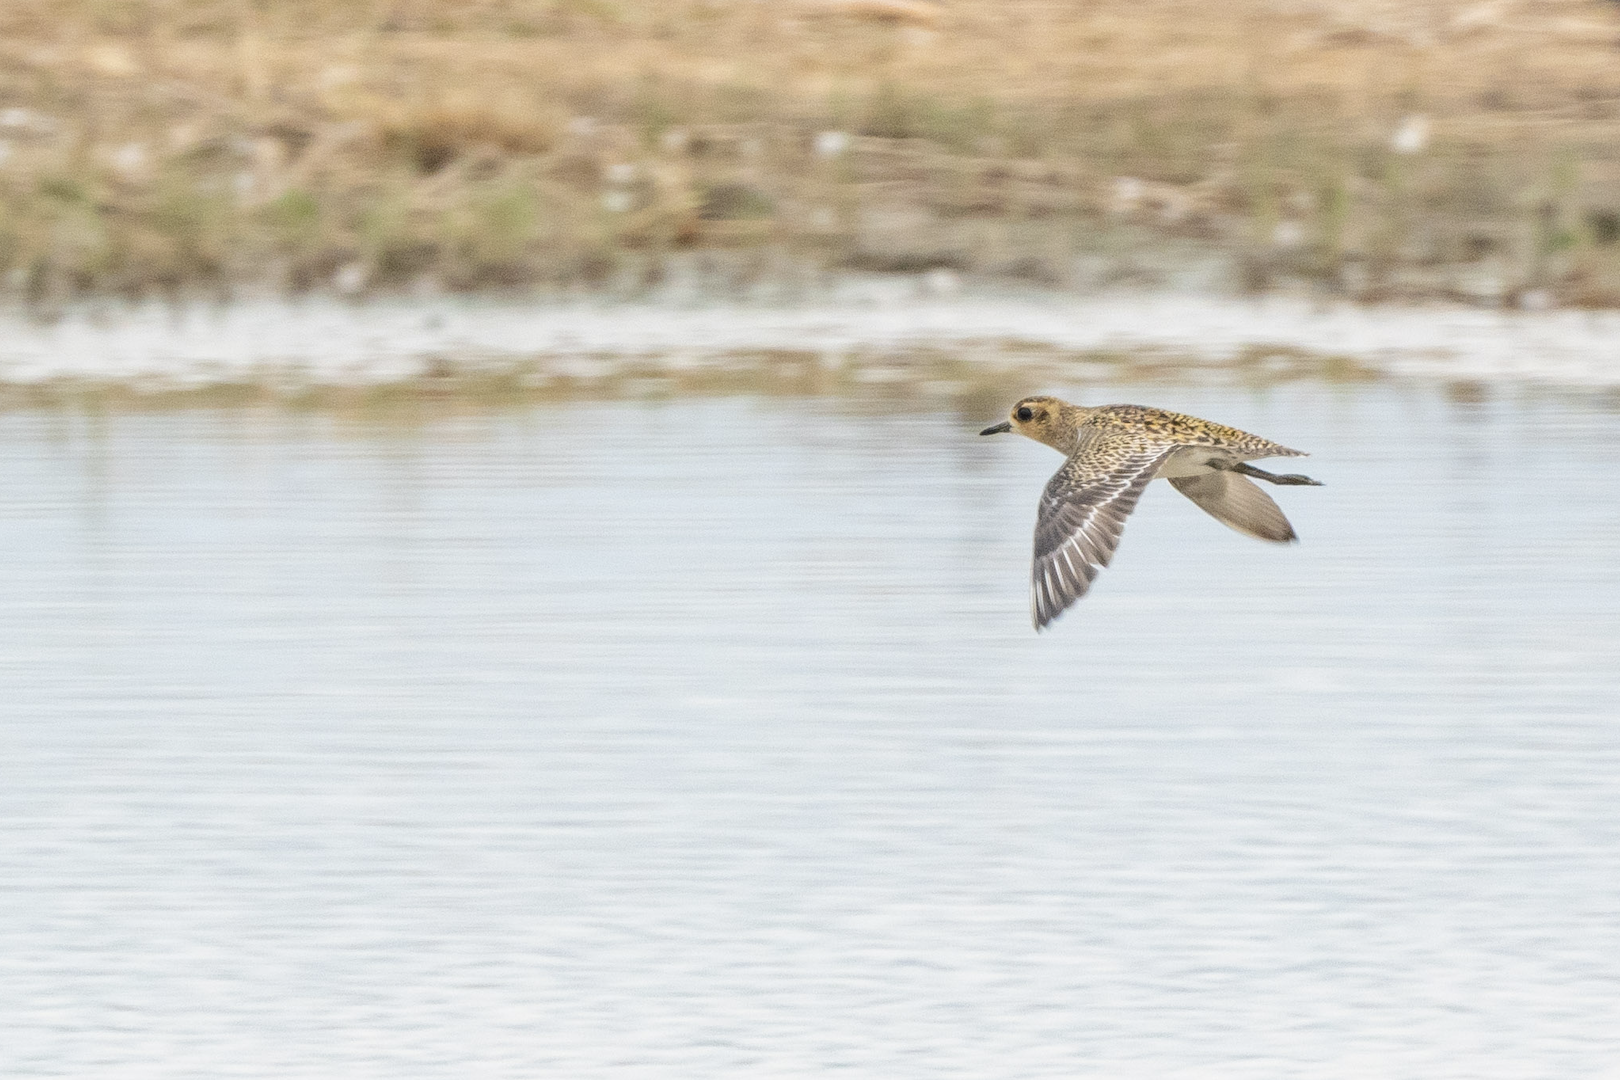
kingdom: Animalia
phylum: Chordata
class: Aves
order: Charadriiformes
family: Charadriidae
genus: Pluvialis
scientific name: Pluvialis fulva
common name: Pacific golden plover
